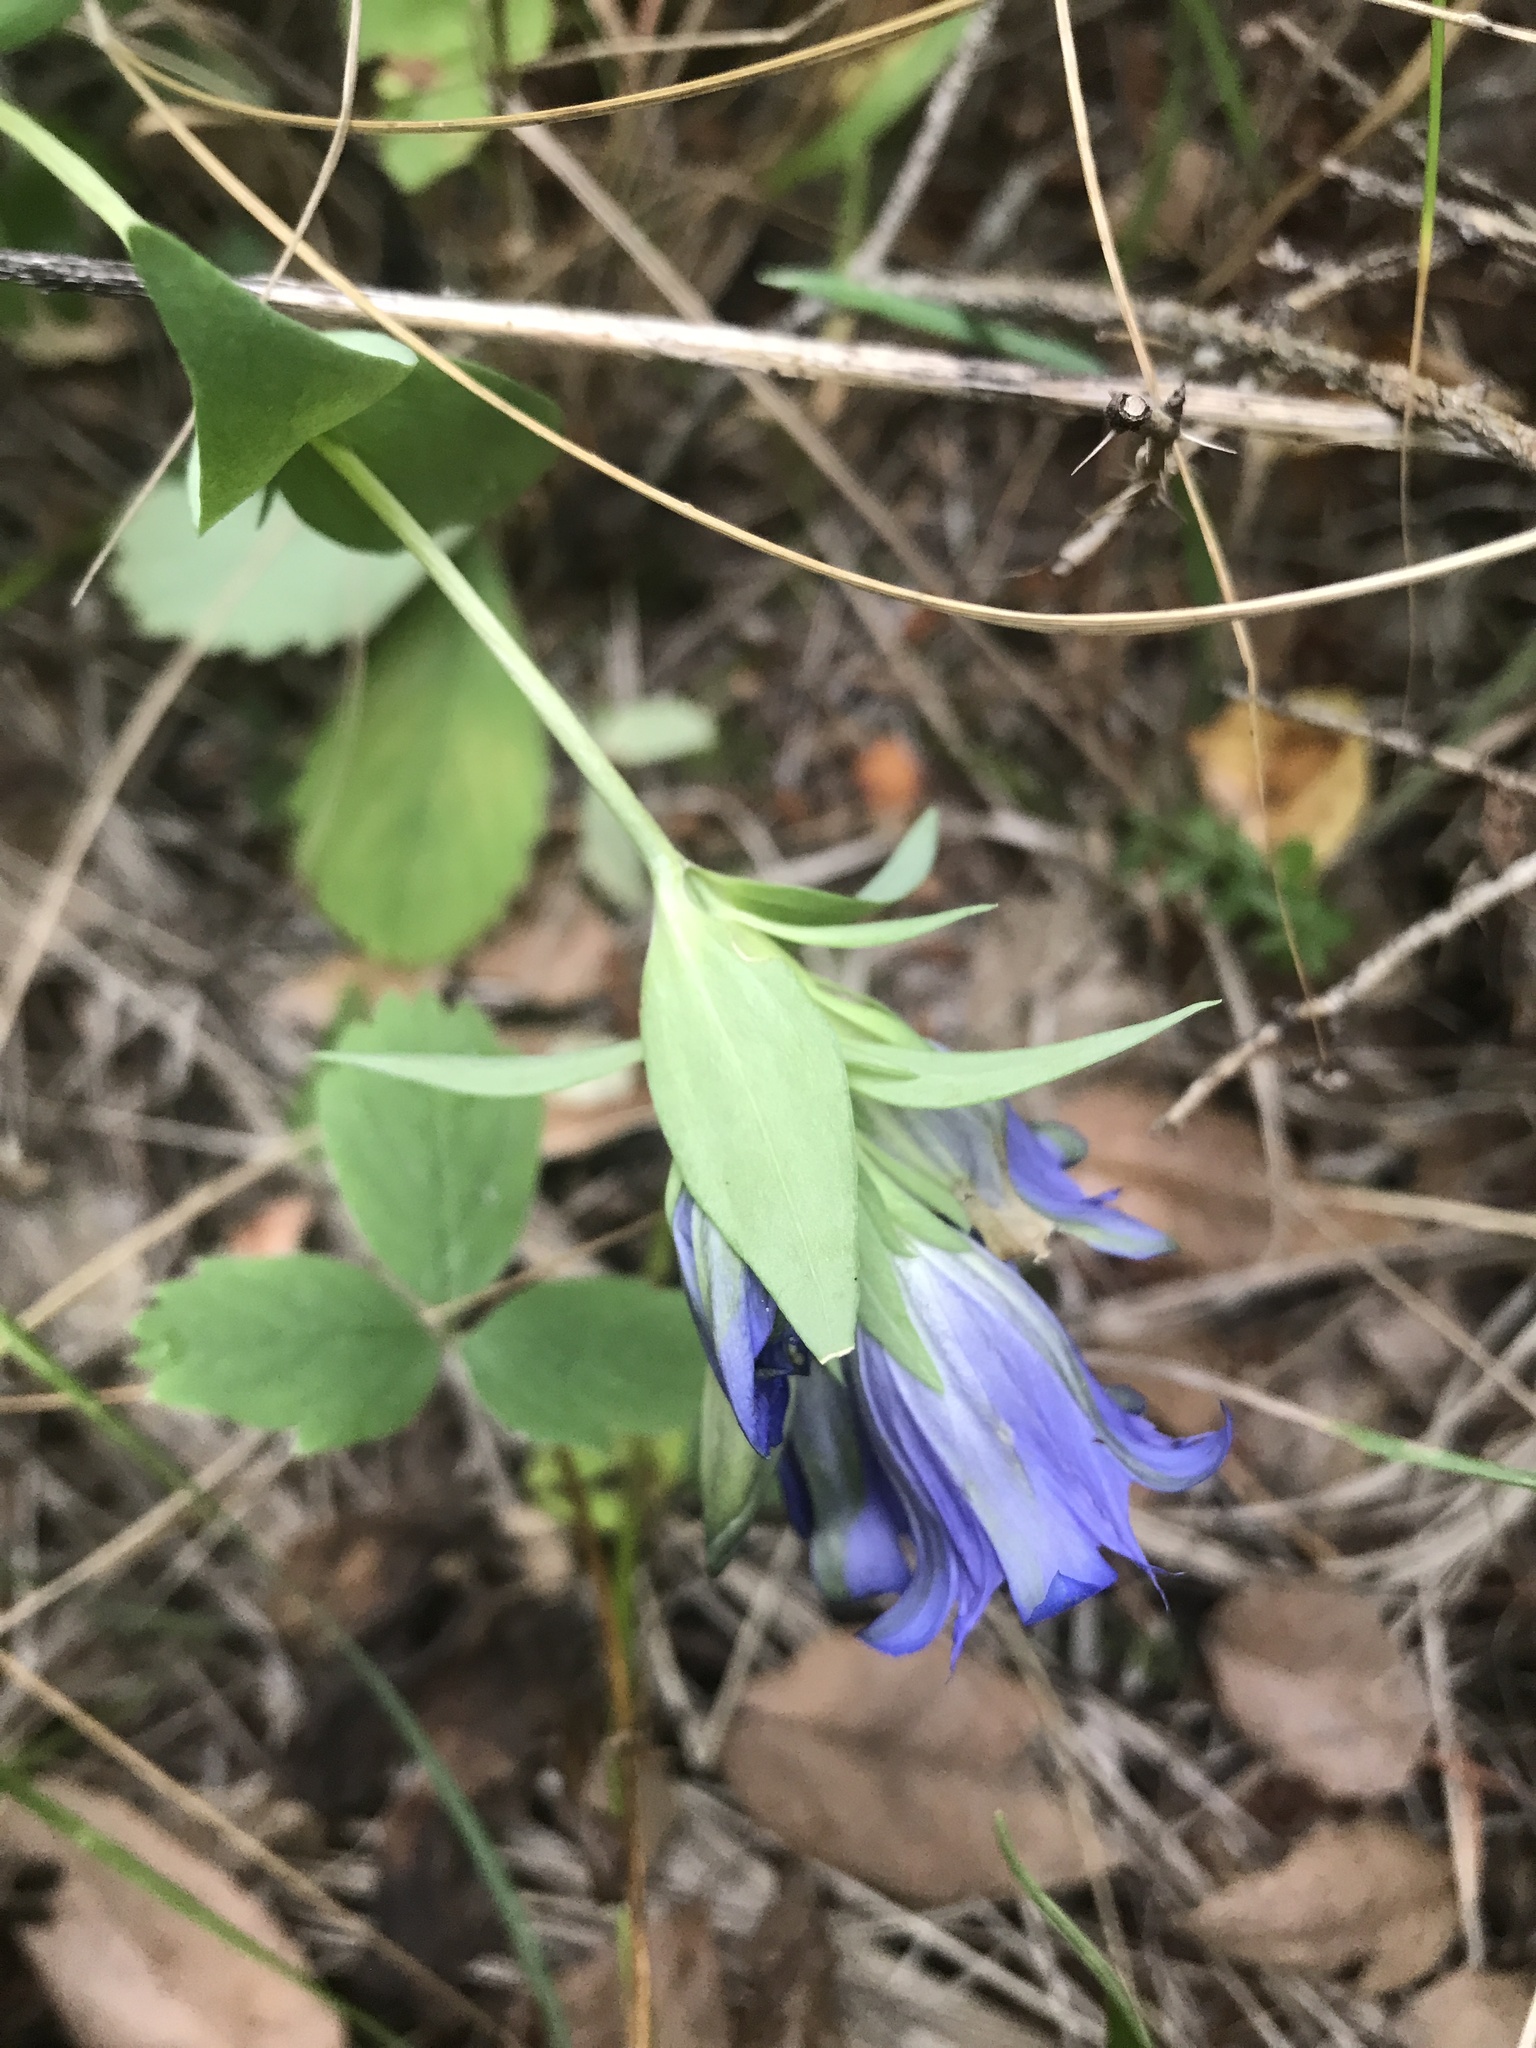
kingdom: Plantae
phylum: Tracheophyta
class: Magnoliopsida
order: Gentianales
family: Gentianaceae
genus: Gentiana
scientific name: Gentiana affinis
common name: Rocky mountain gentian
